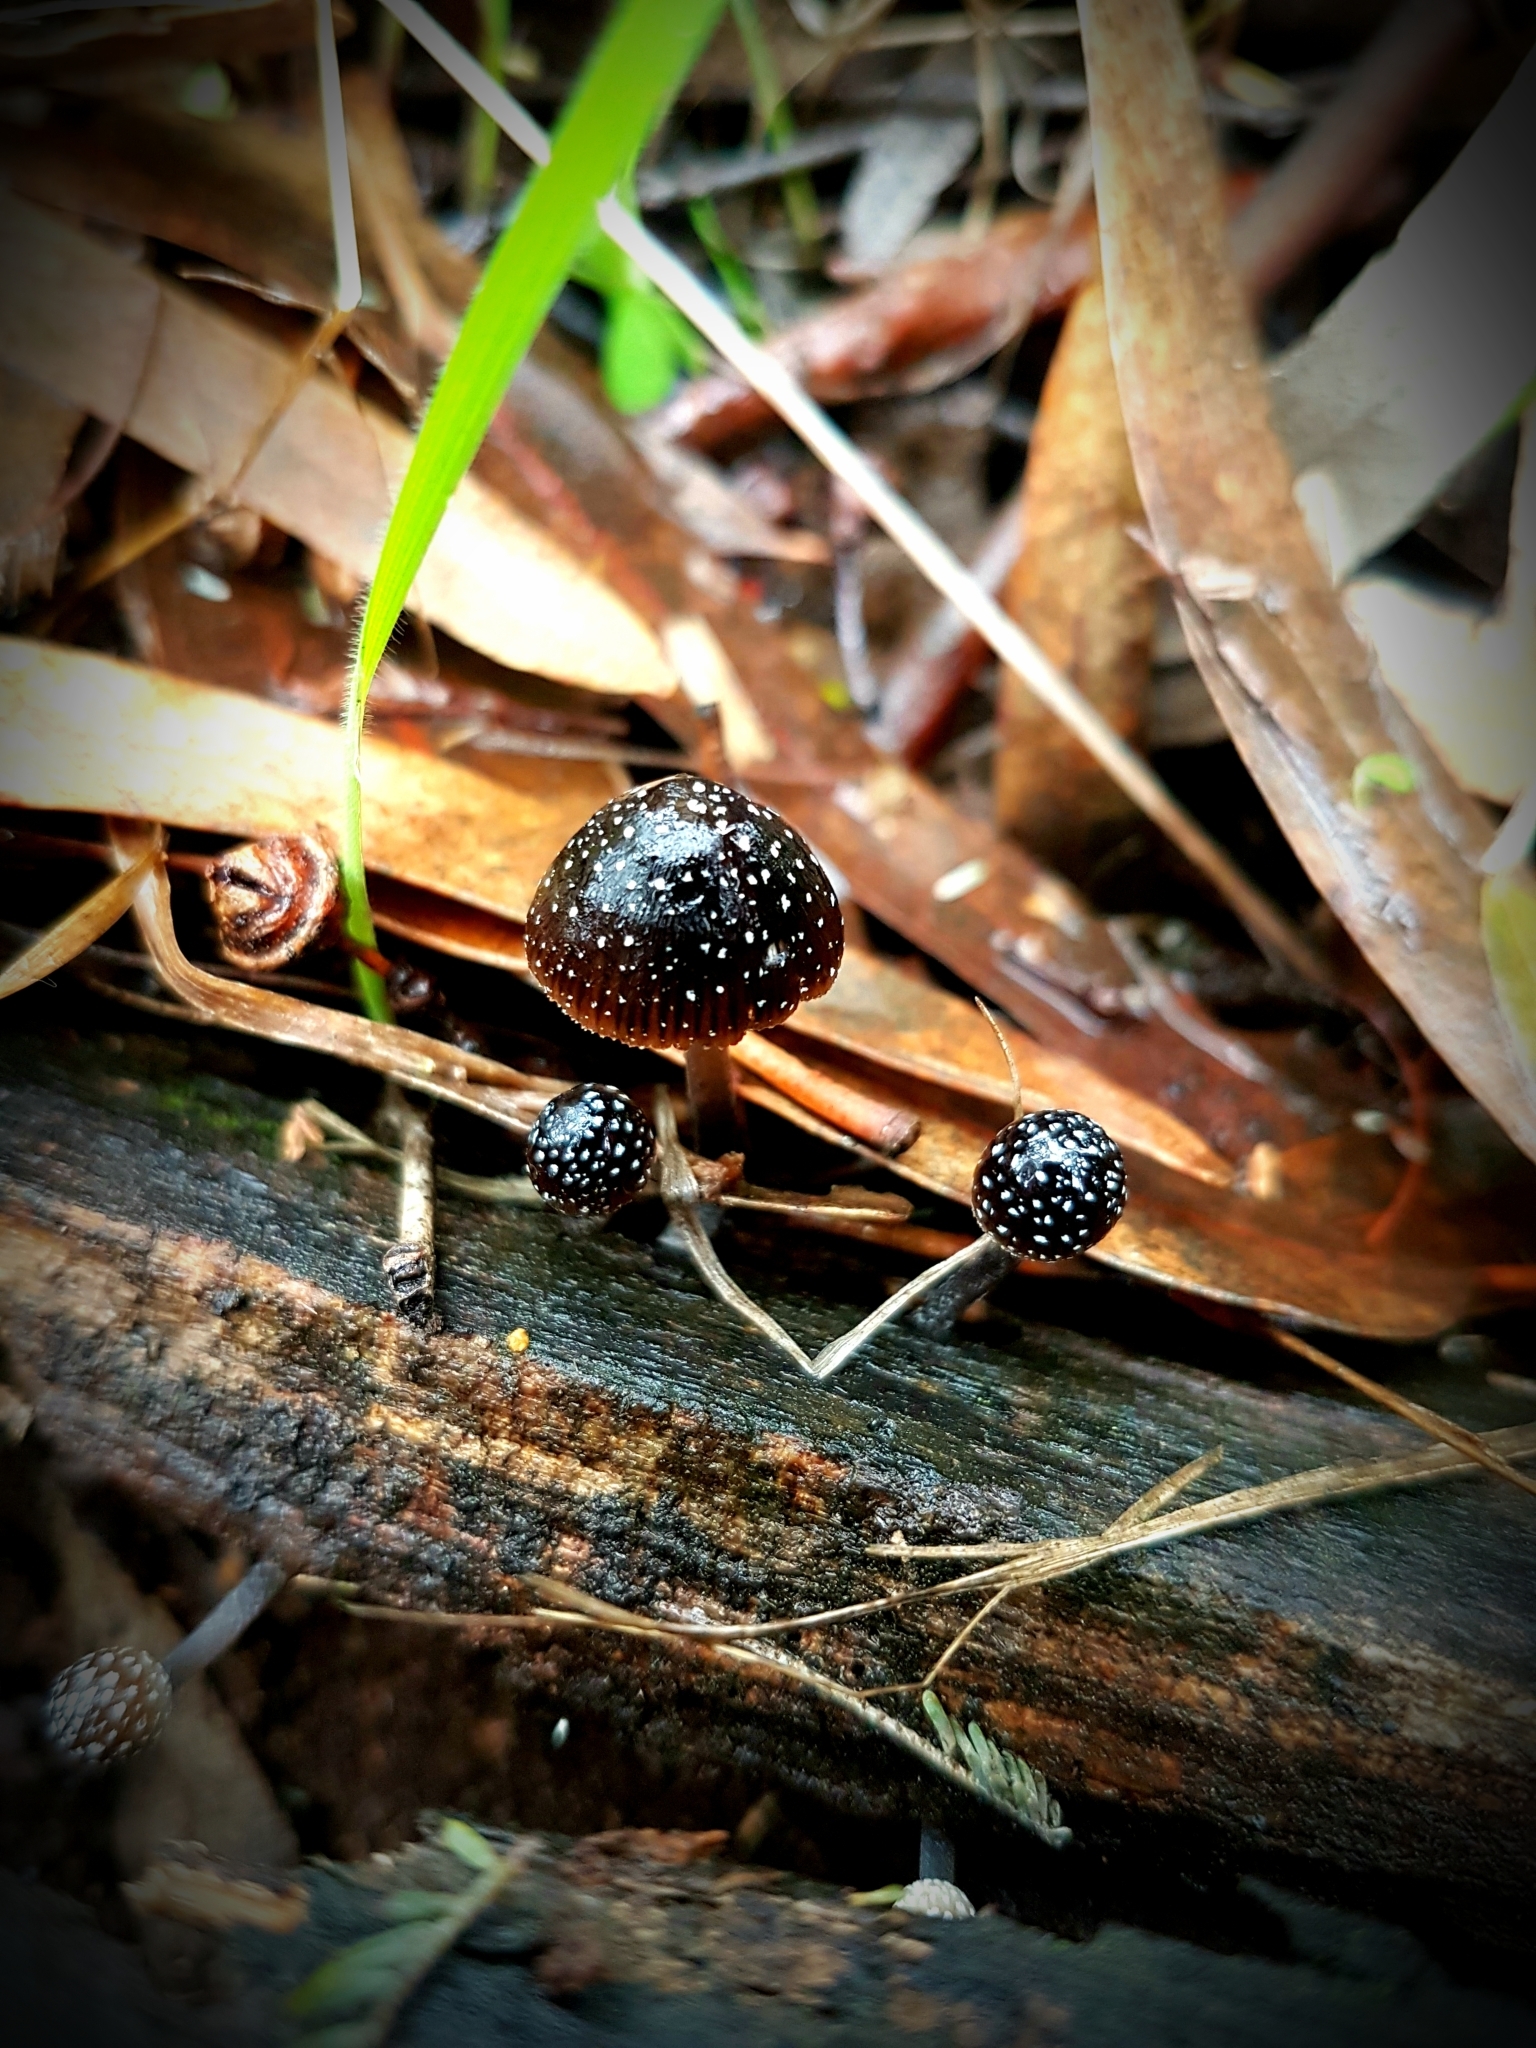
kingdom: Fungi
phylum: Basidiomycota
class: Agaricomycetes
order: Agaricales
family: Mycenaceae
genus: Mycena
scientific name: Mycena nargan
